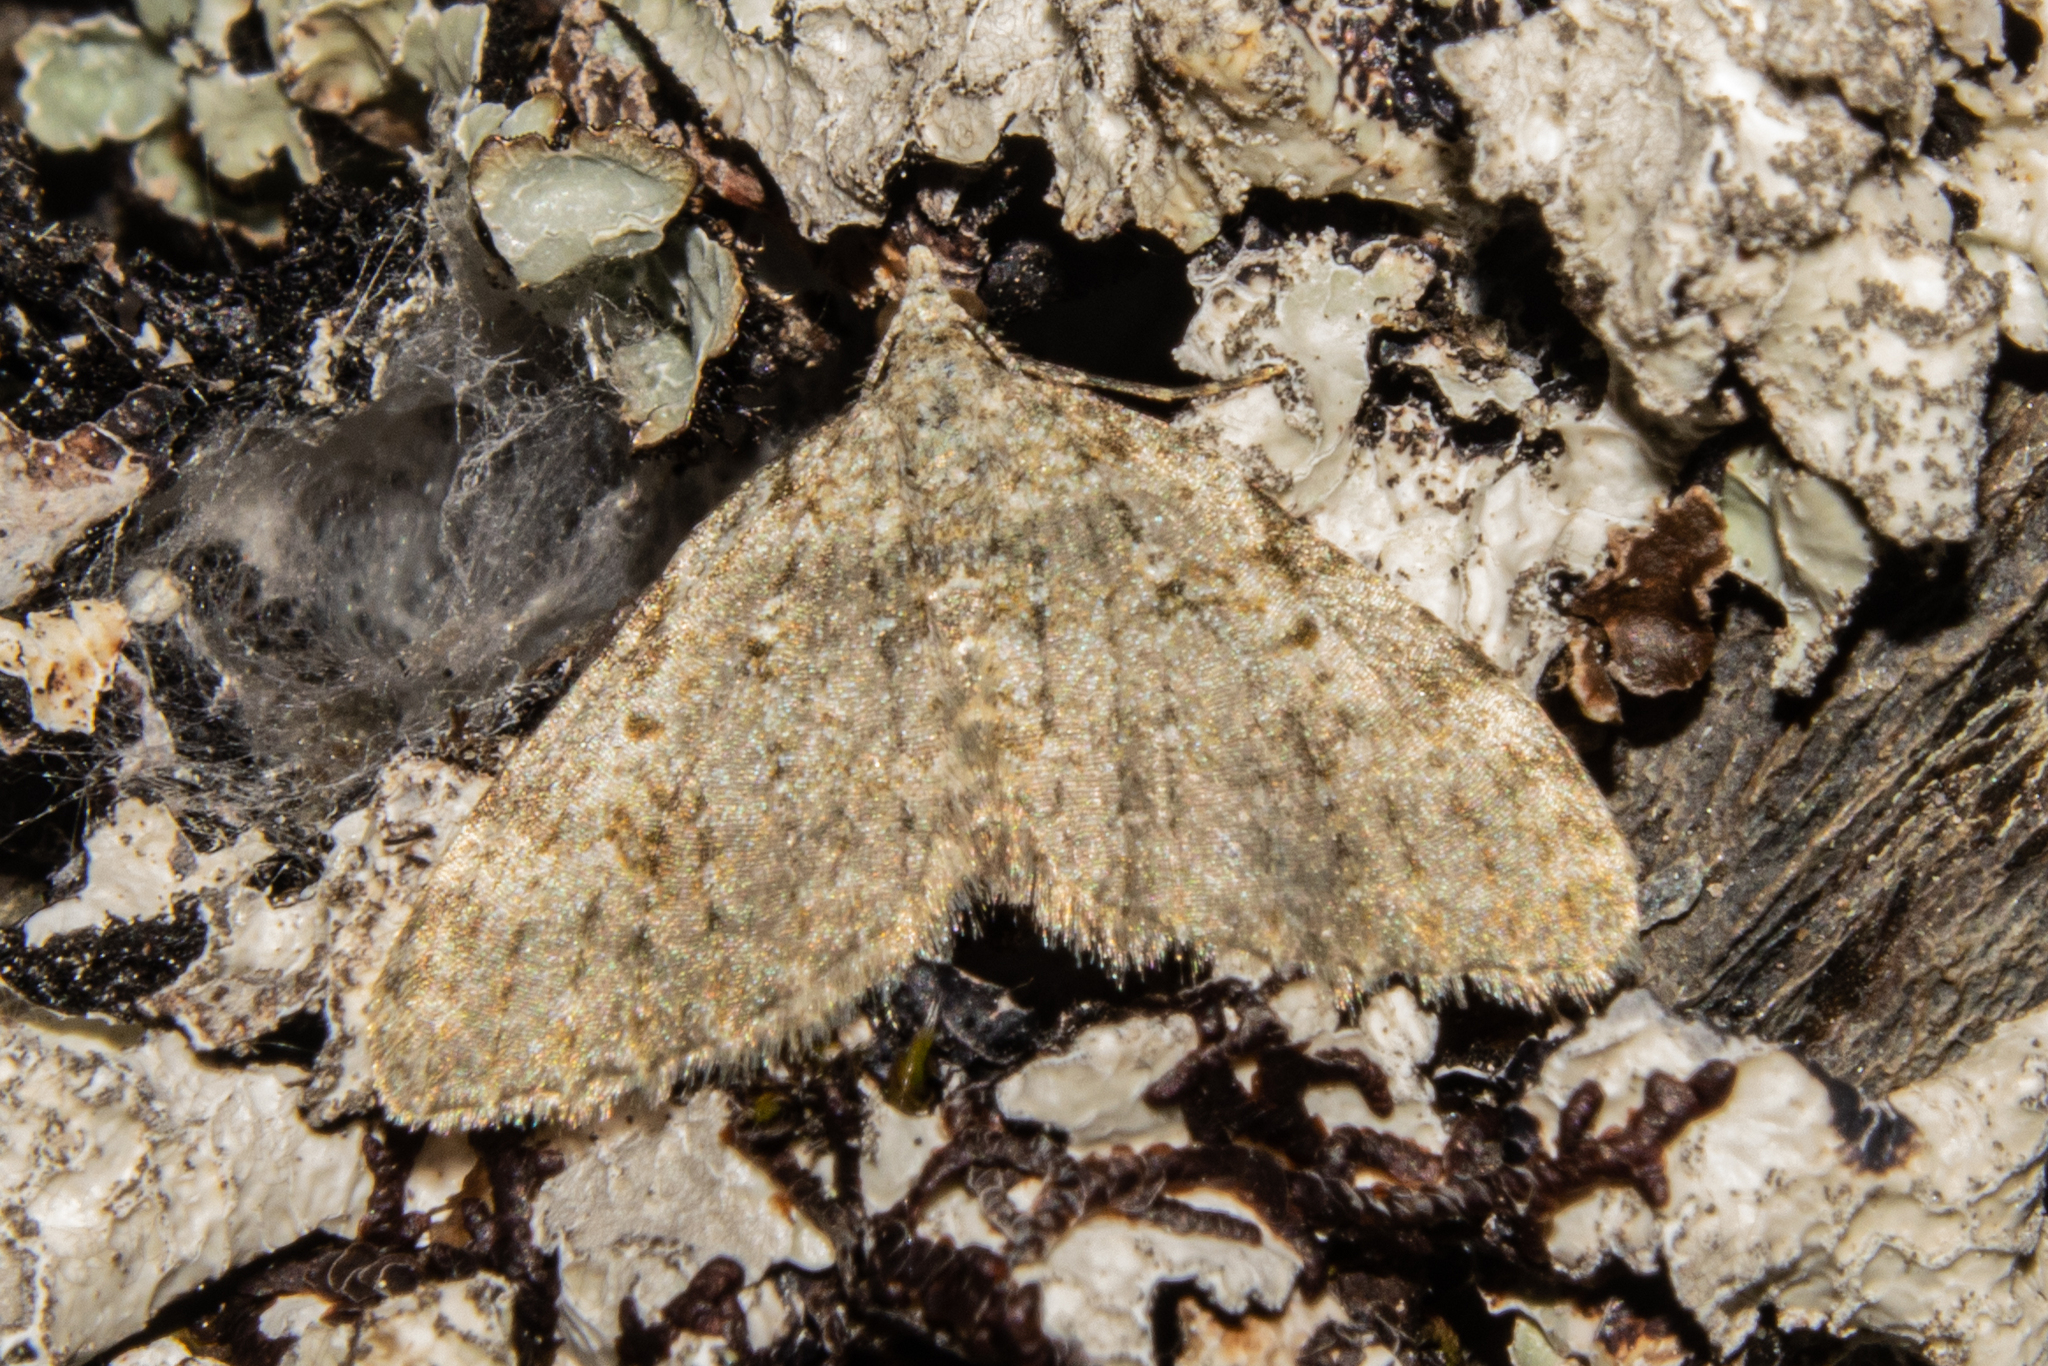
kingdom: Animalia
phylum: Arthropoda
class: Insecta
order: Lepidoptera
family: Geometridae
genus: Helastia
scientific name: Helastia plumbea
